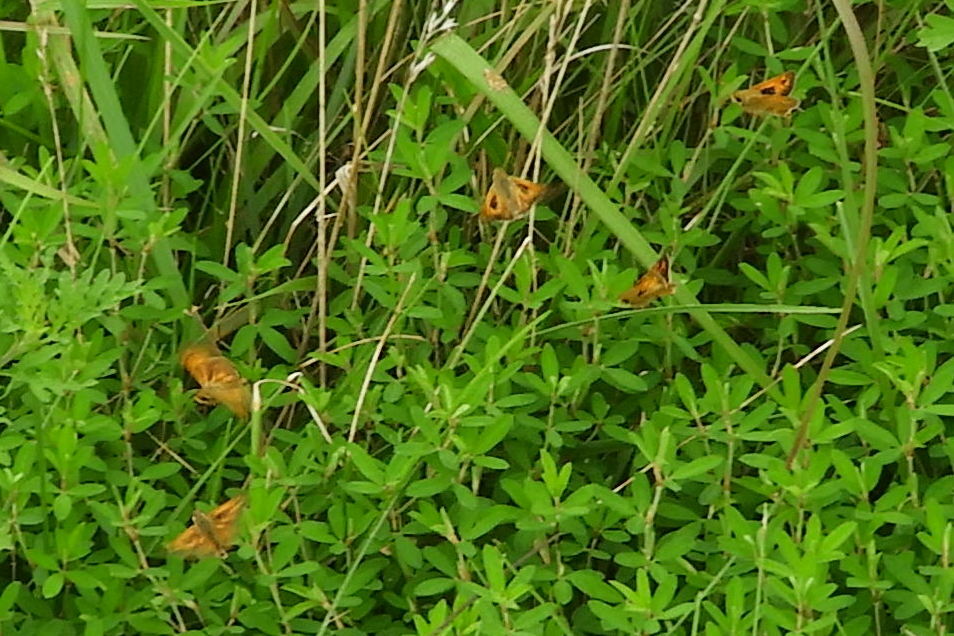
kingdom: Animalia
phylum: Arthropoda
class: Insecta
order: Lepidoptera
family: Hesperiidae
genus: Atalopedes
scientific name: Atalopedes
